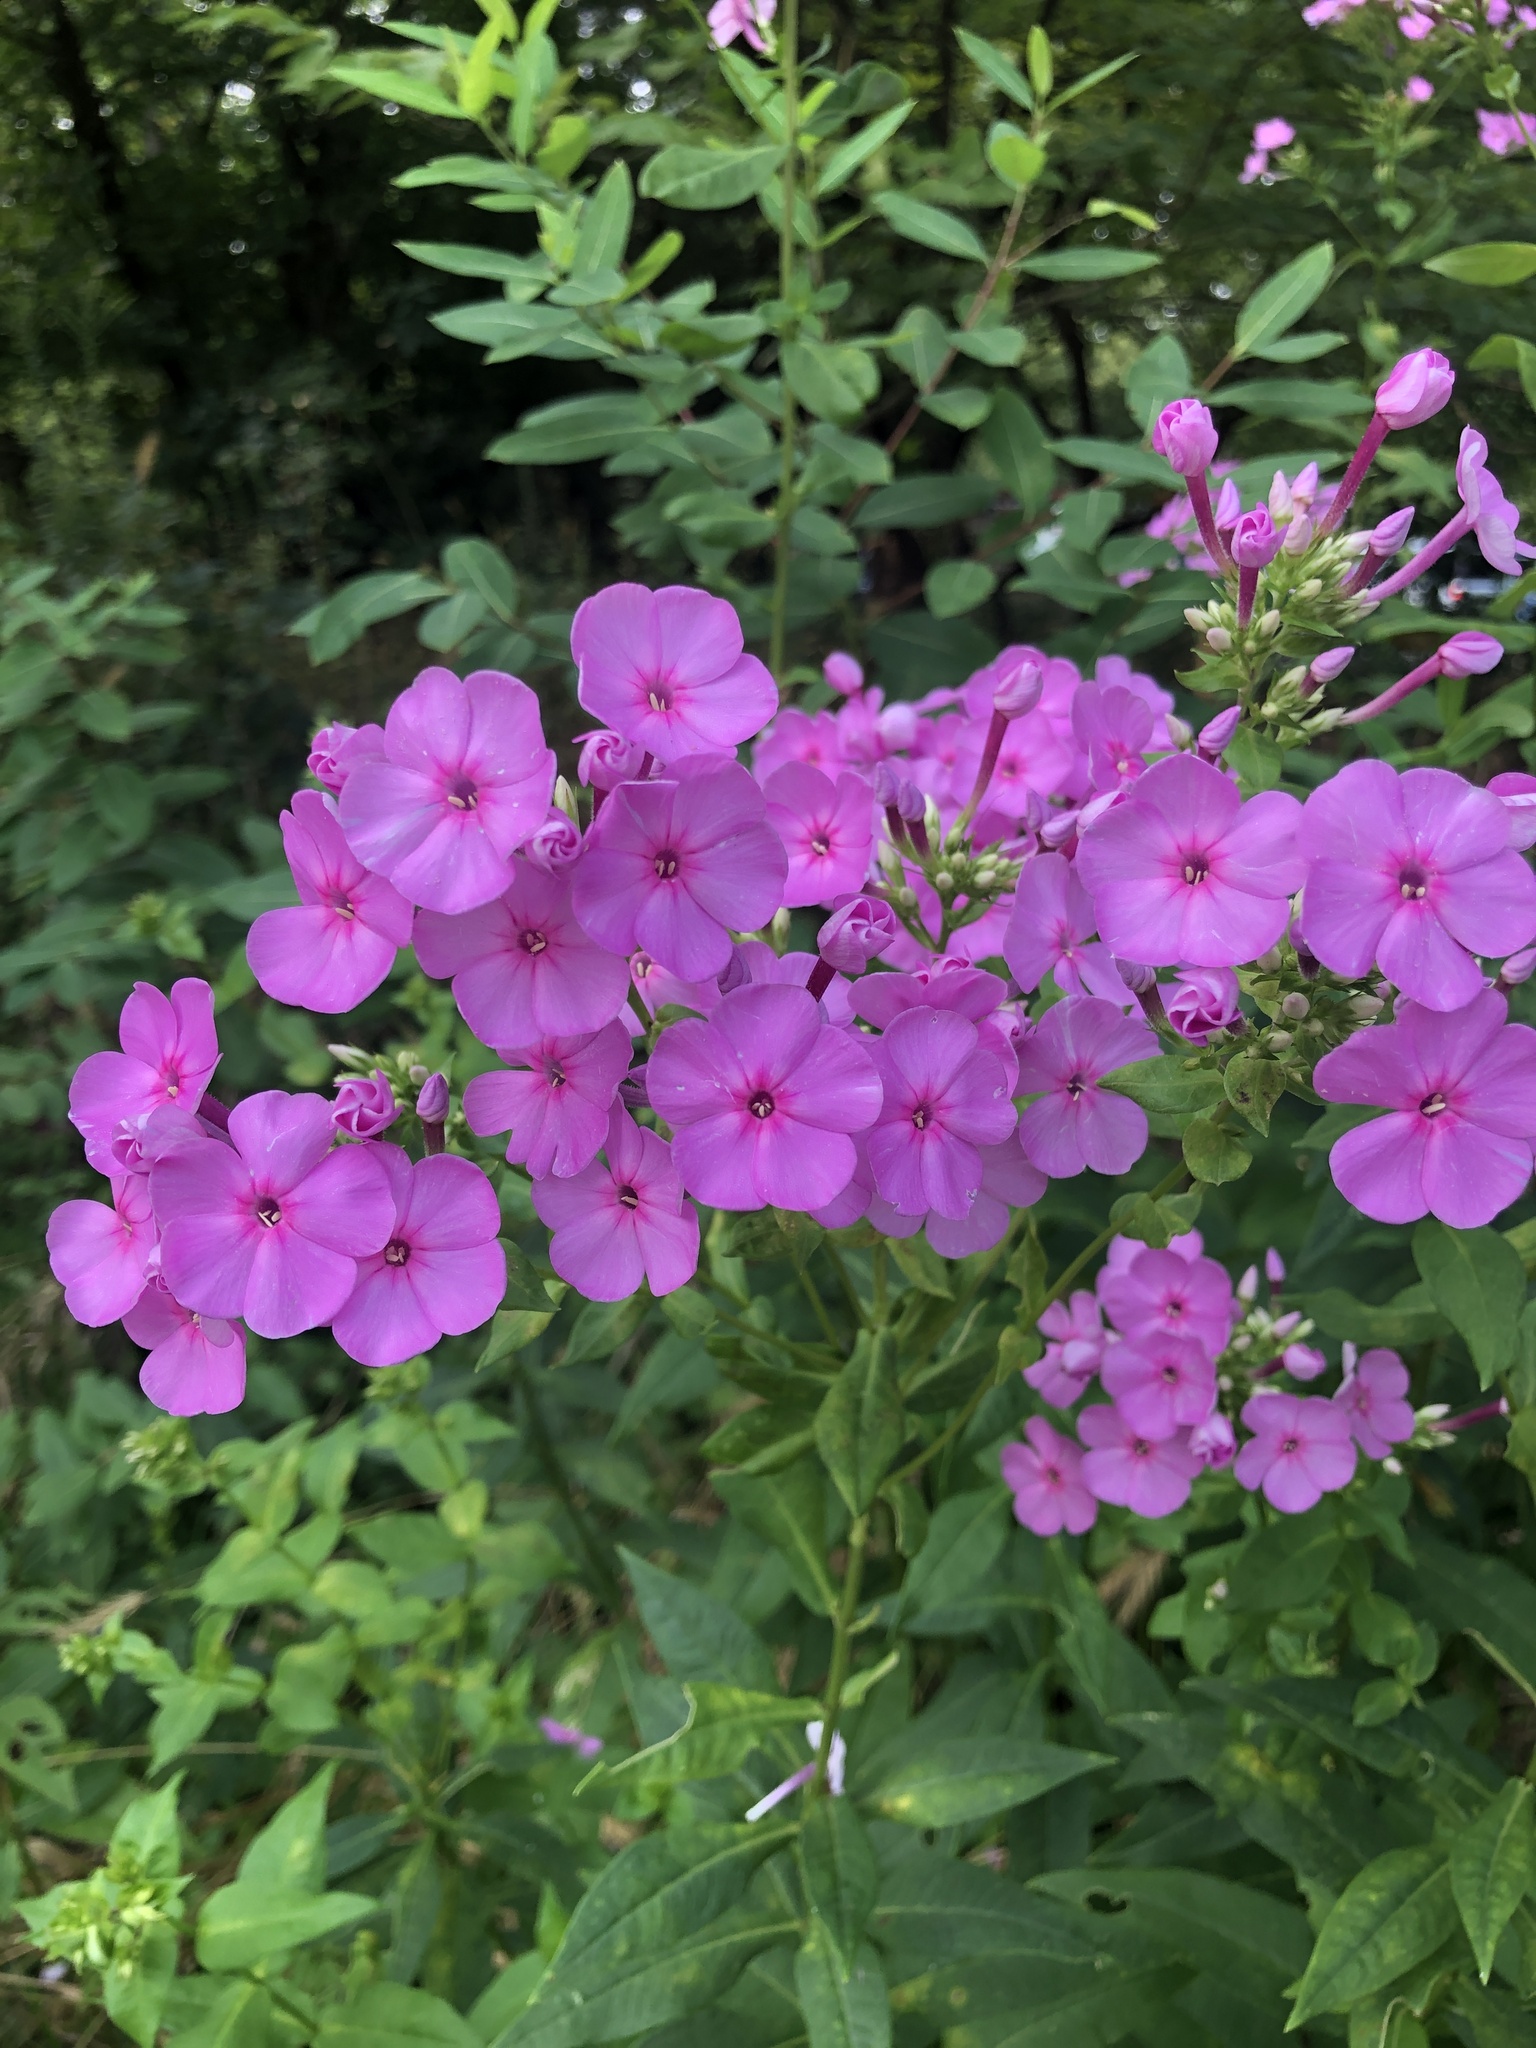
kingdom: Plantae
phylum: Tracheophyta
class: Magnoliopsida
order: Ericales
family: Polemoniaceae
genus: Phlox
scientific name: Phlox paniculata
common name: Fall phlox
